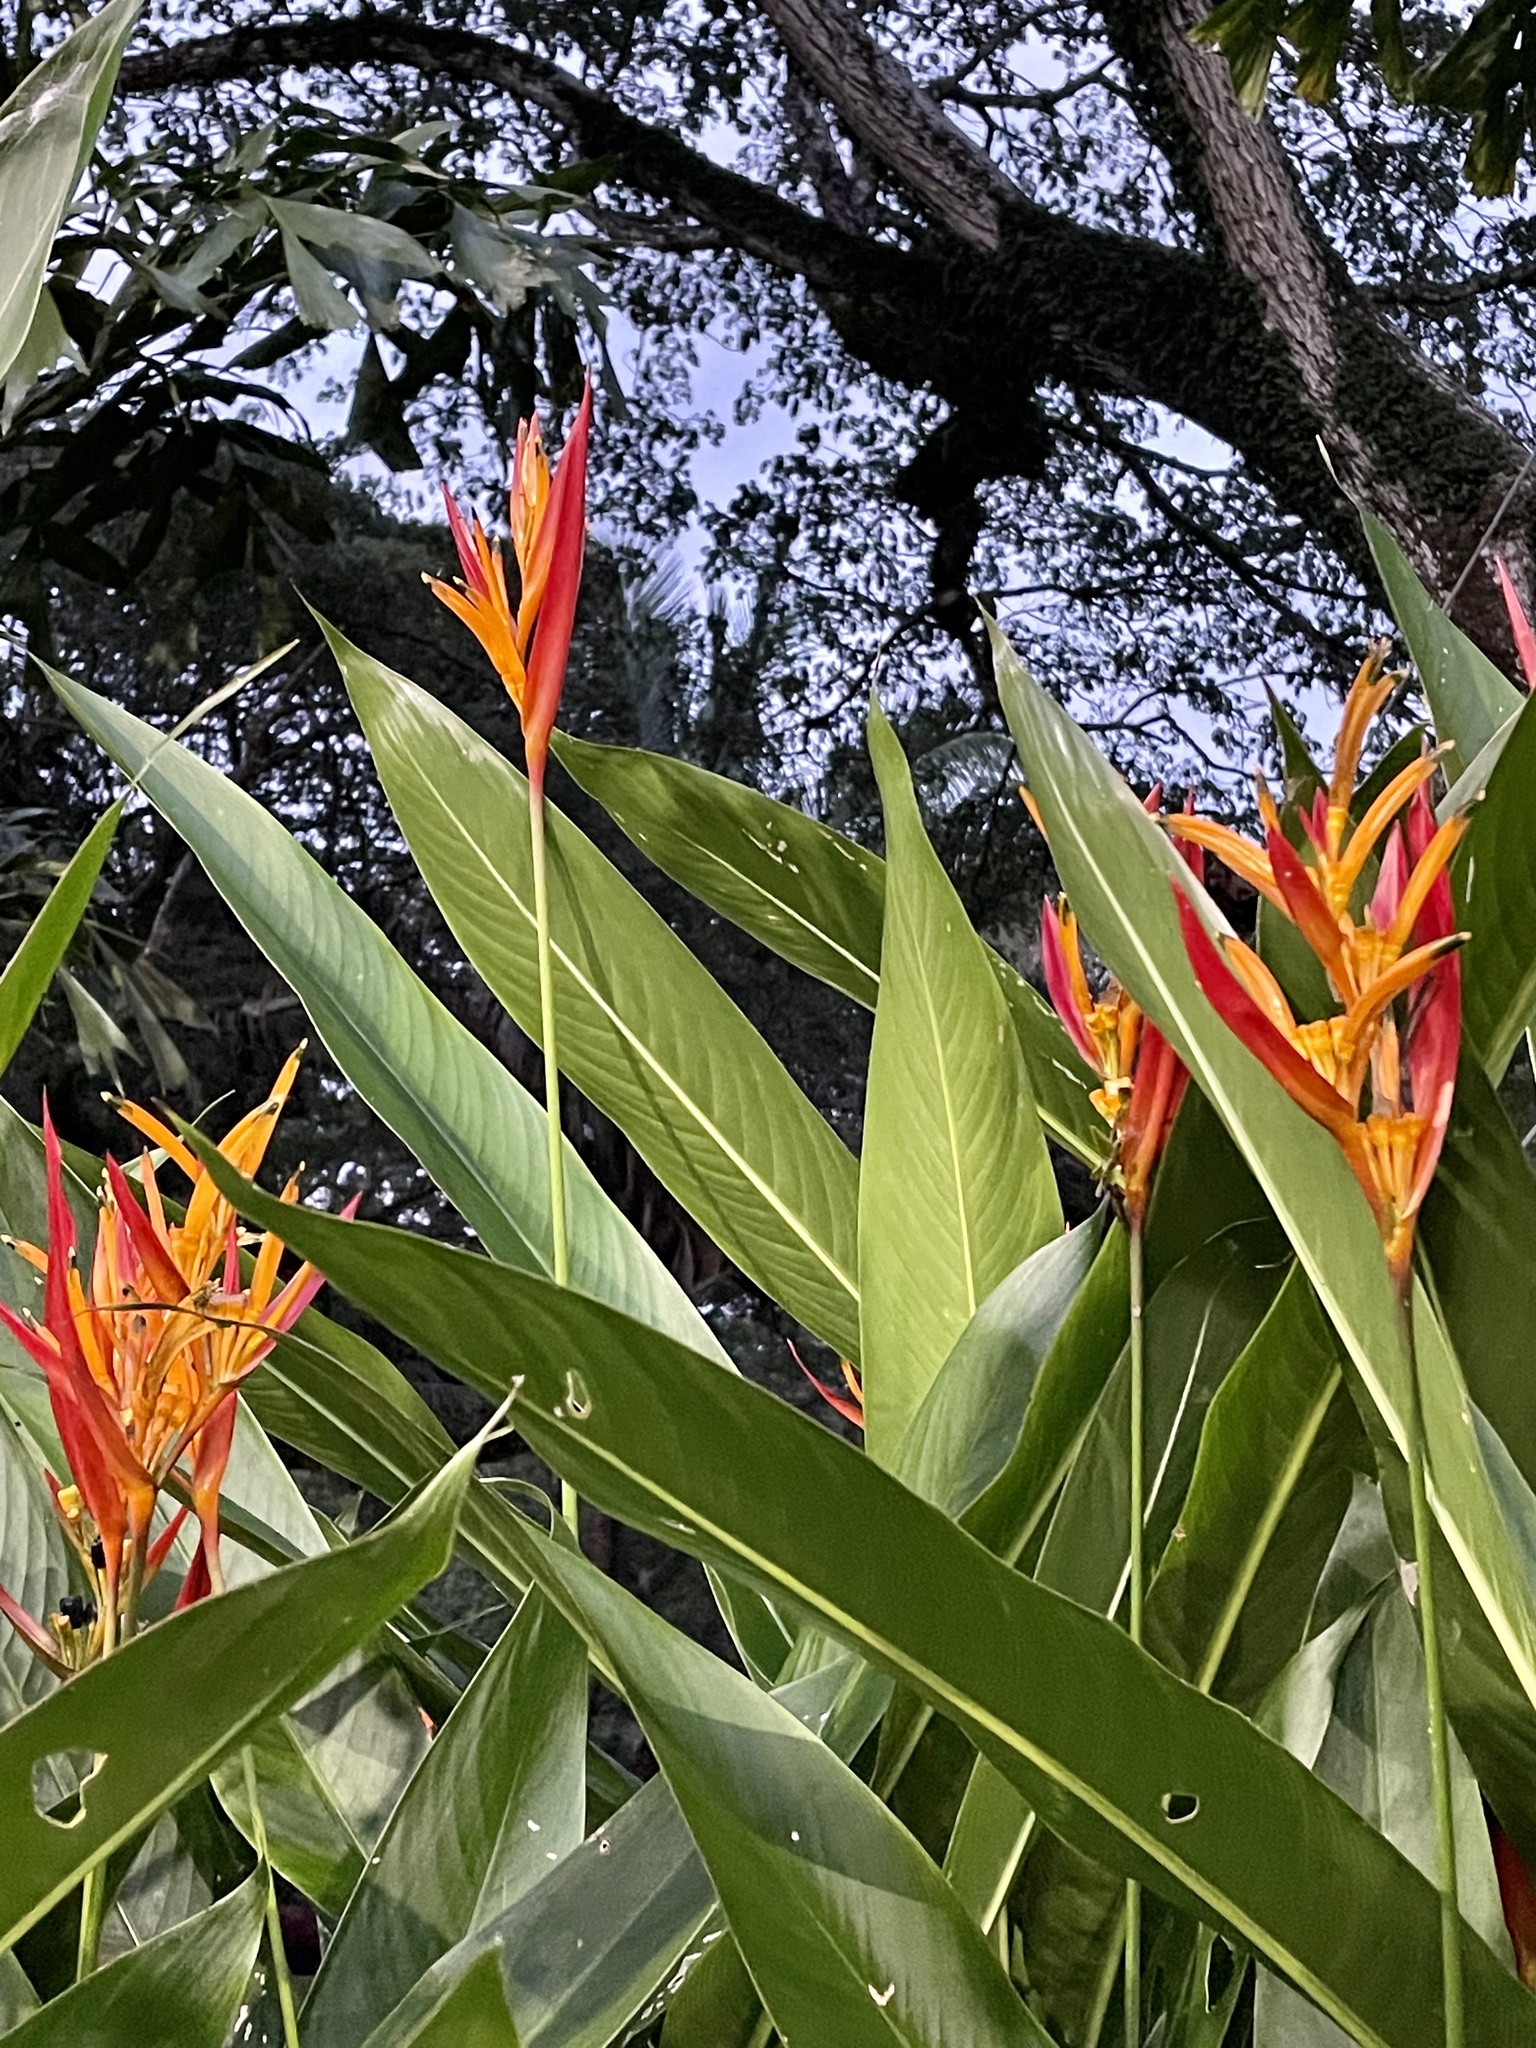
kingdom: Plantae
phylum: Tracheophyta
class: Liliopsida
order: Zingiberales
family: Heliconiaceae
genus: Heliconia
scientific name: Heliconia psittacorum
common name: Parrot's-flower
